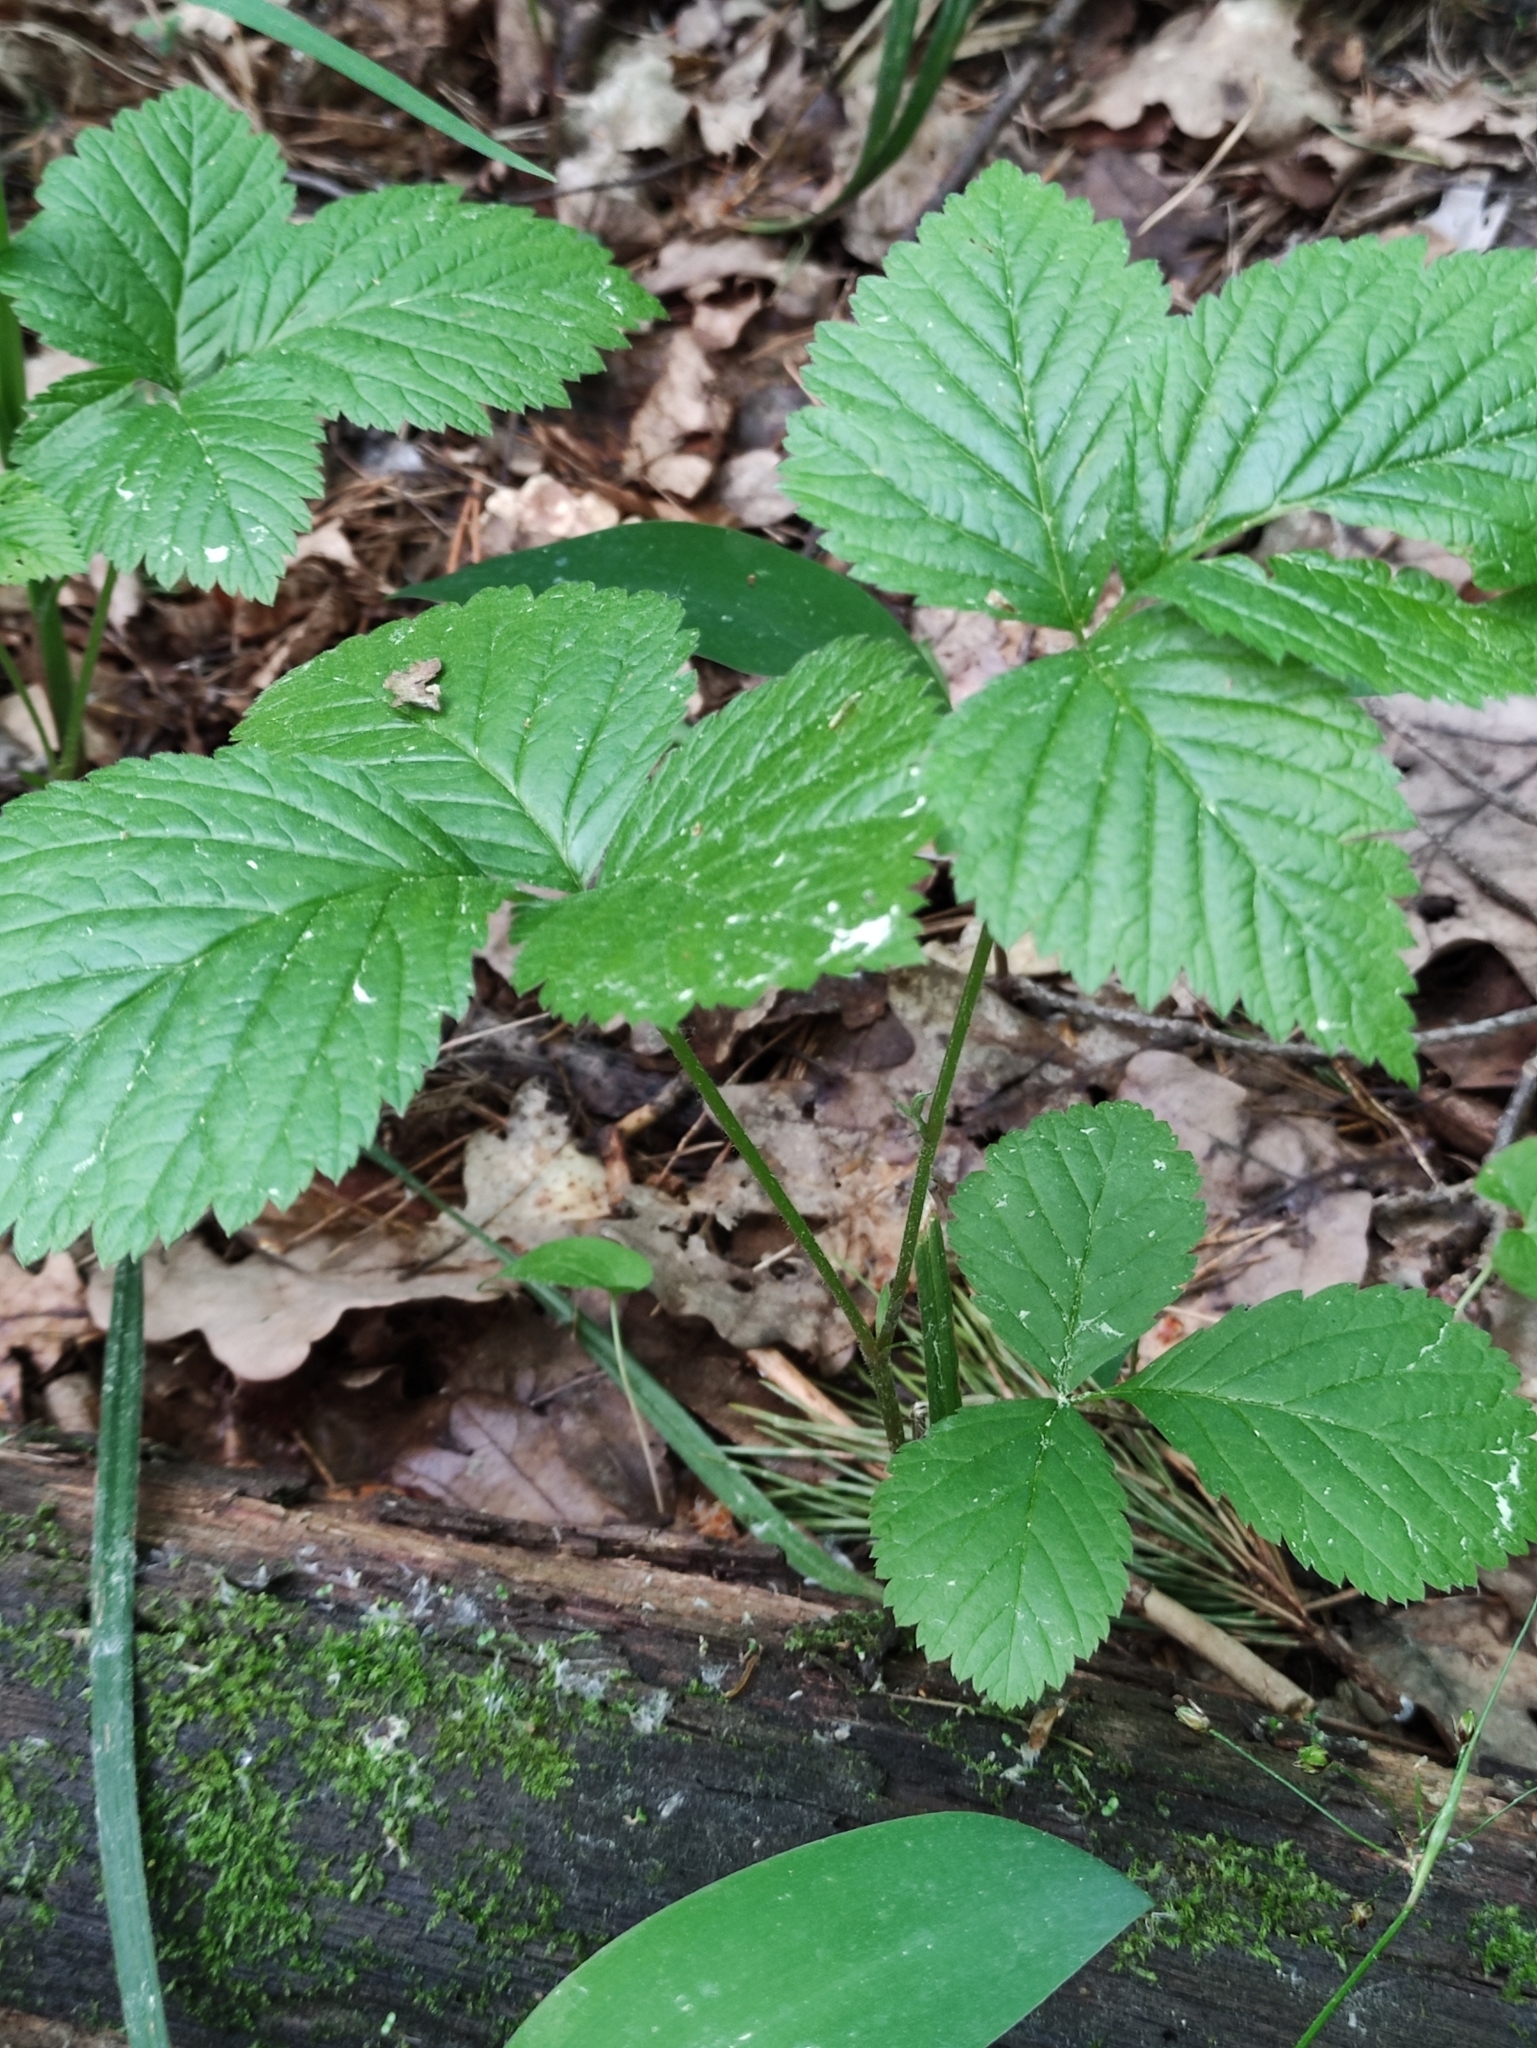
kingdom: Plantae
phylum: Tracheophyta
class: Magnoliopsida
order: Rosales
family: Rosaceae
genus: Rubus
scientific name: Rubus saxatilis
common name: Stone bramble
